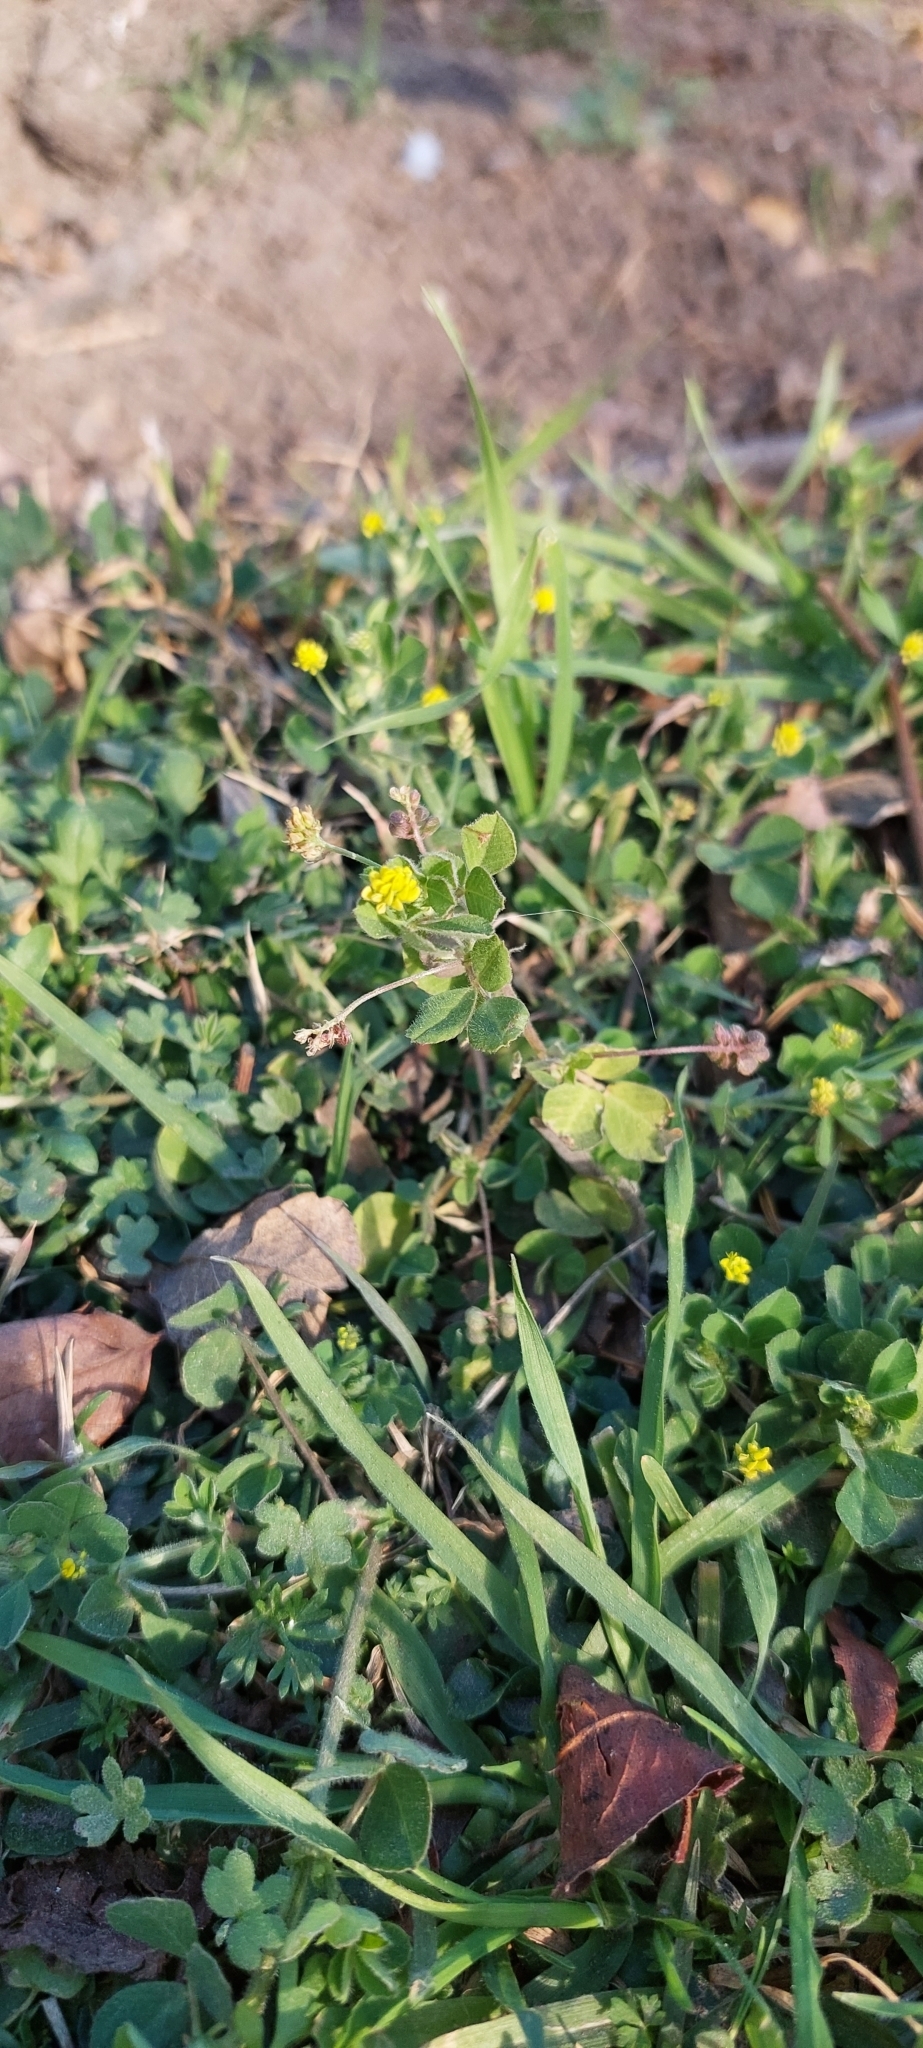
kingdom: Plantae
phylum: Tracheophyta
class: Magnoliopsida
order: Fabales
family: Fabaceae
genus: Medicago
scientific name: Medicago lupulina
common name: Black medick
